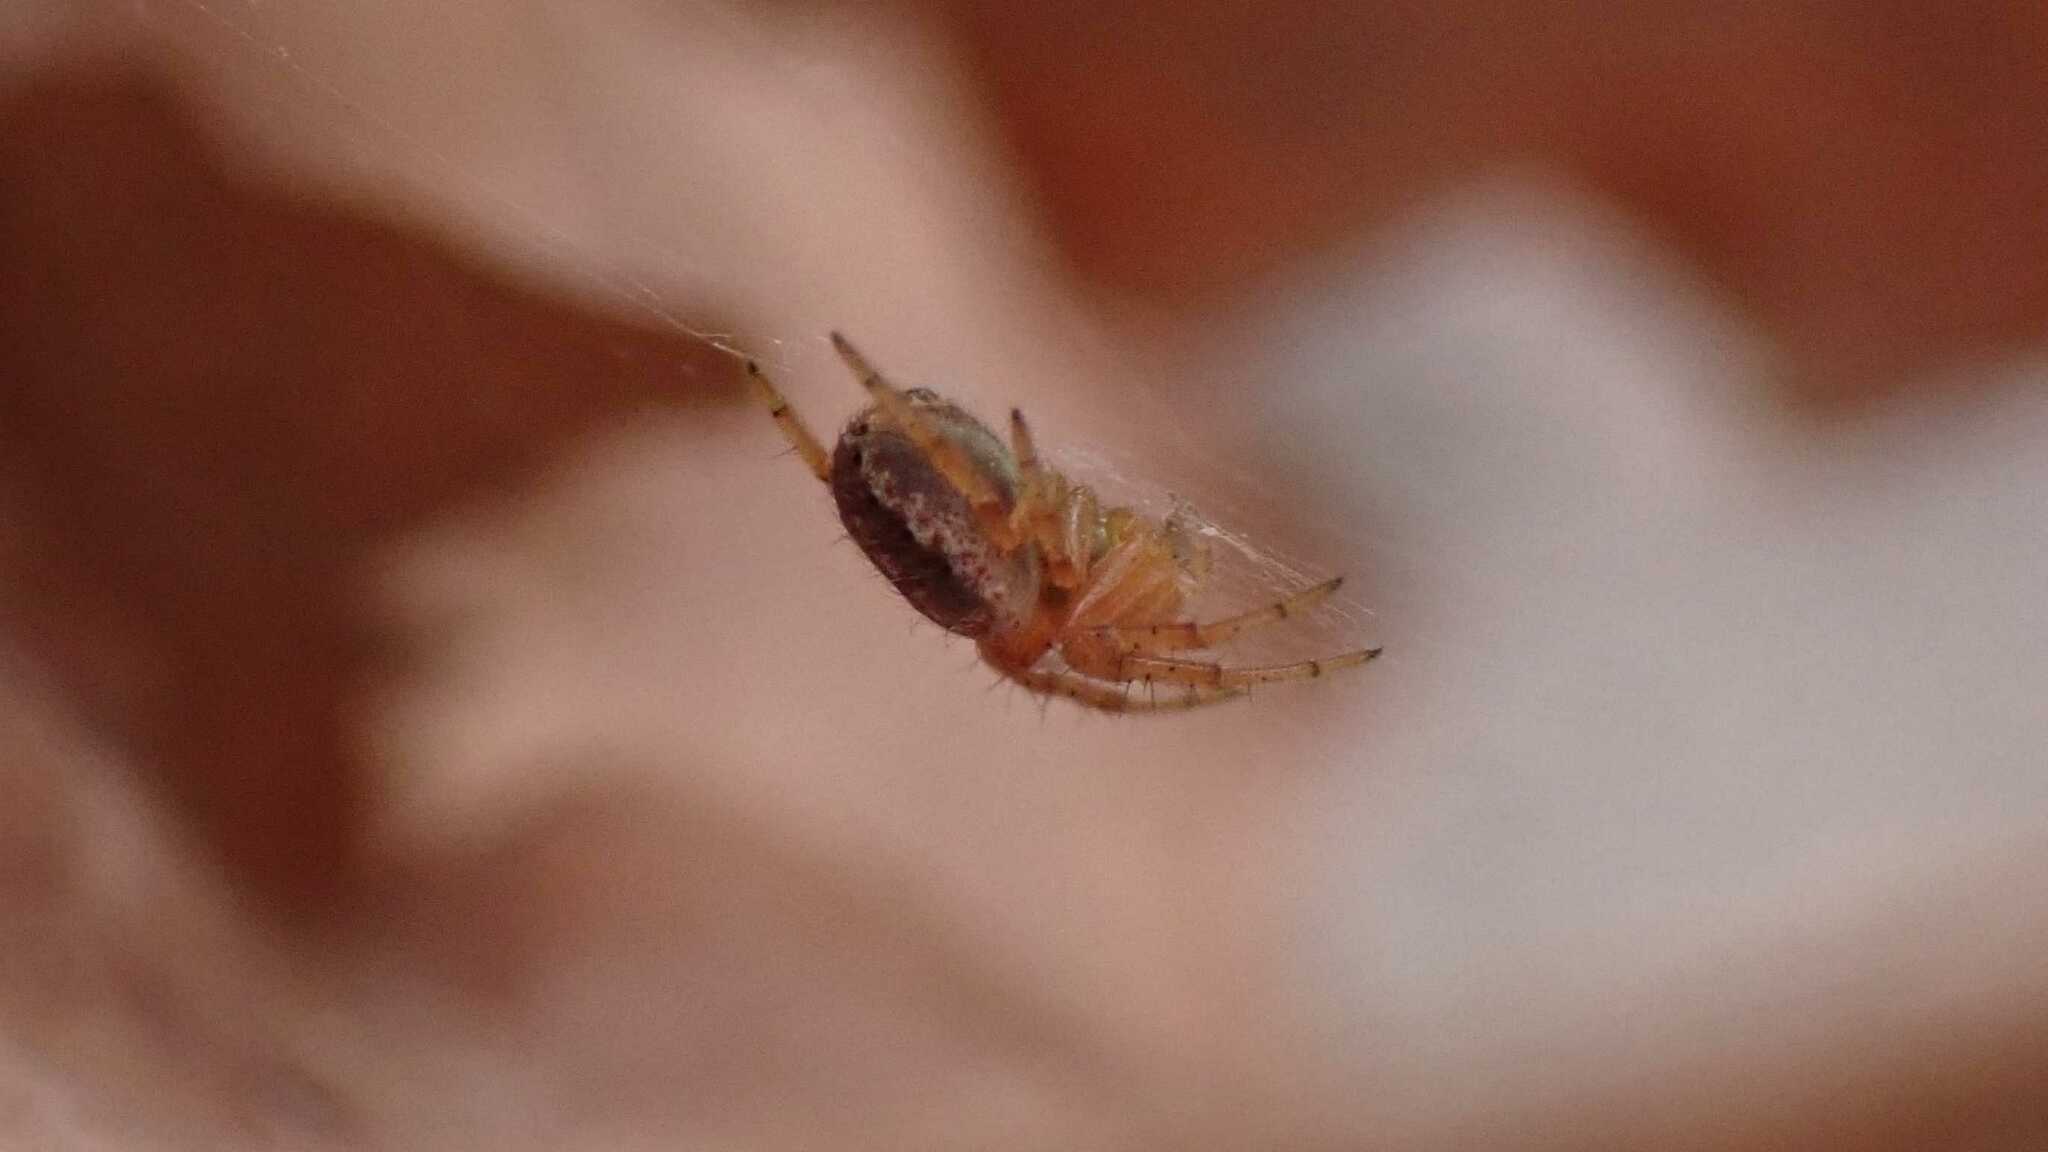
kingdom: Animalia
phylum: Arthropoda
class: Arachnida
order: Araneae
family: Araneidae
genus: Araniella
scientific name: Araniella
